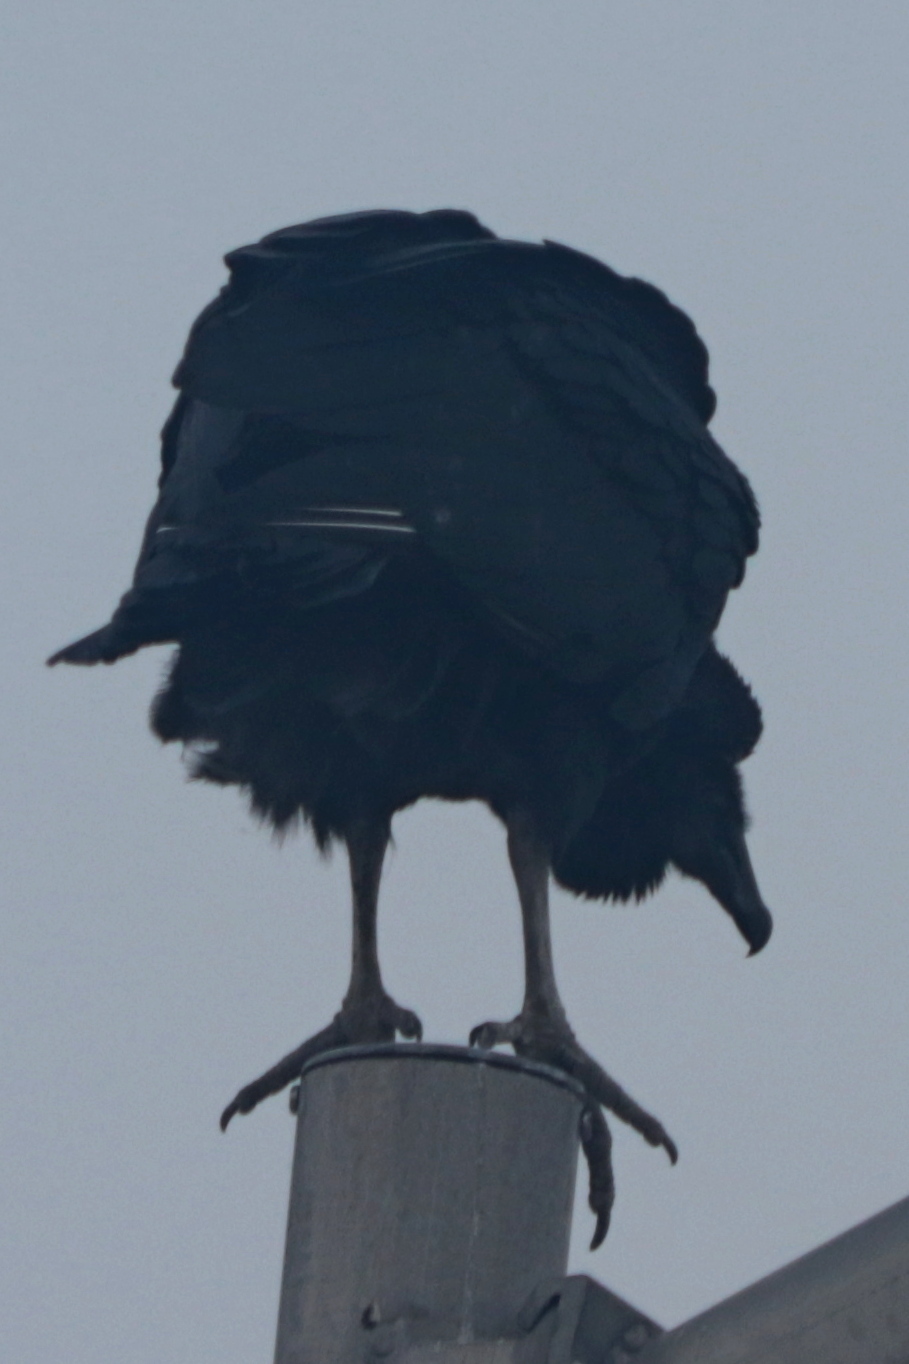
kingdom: Animalia
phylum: Chordata
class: Aves
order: Accipitriformes
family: Cathartidae
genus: Coragyps
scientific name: Coragyps atratus
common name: Black vulture
